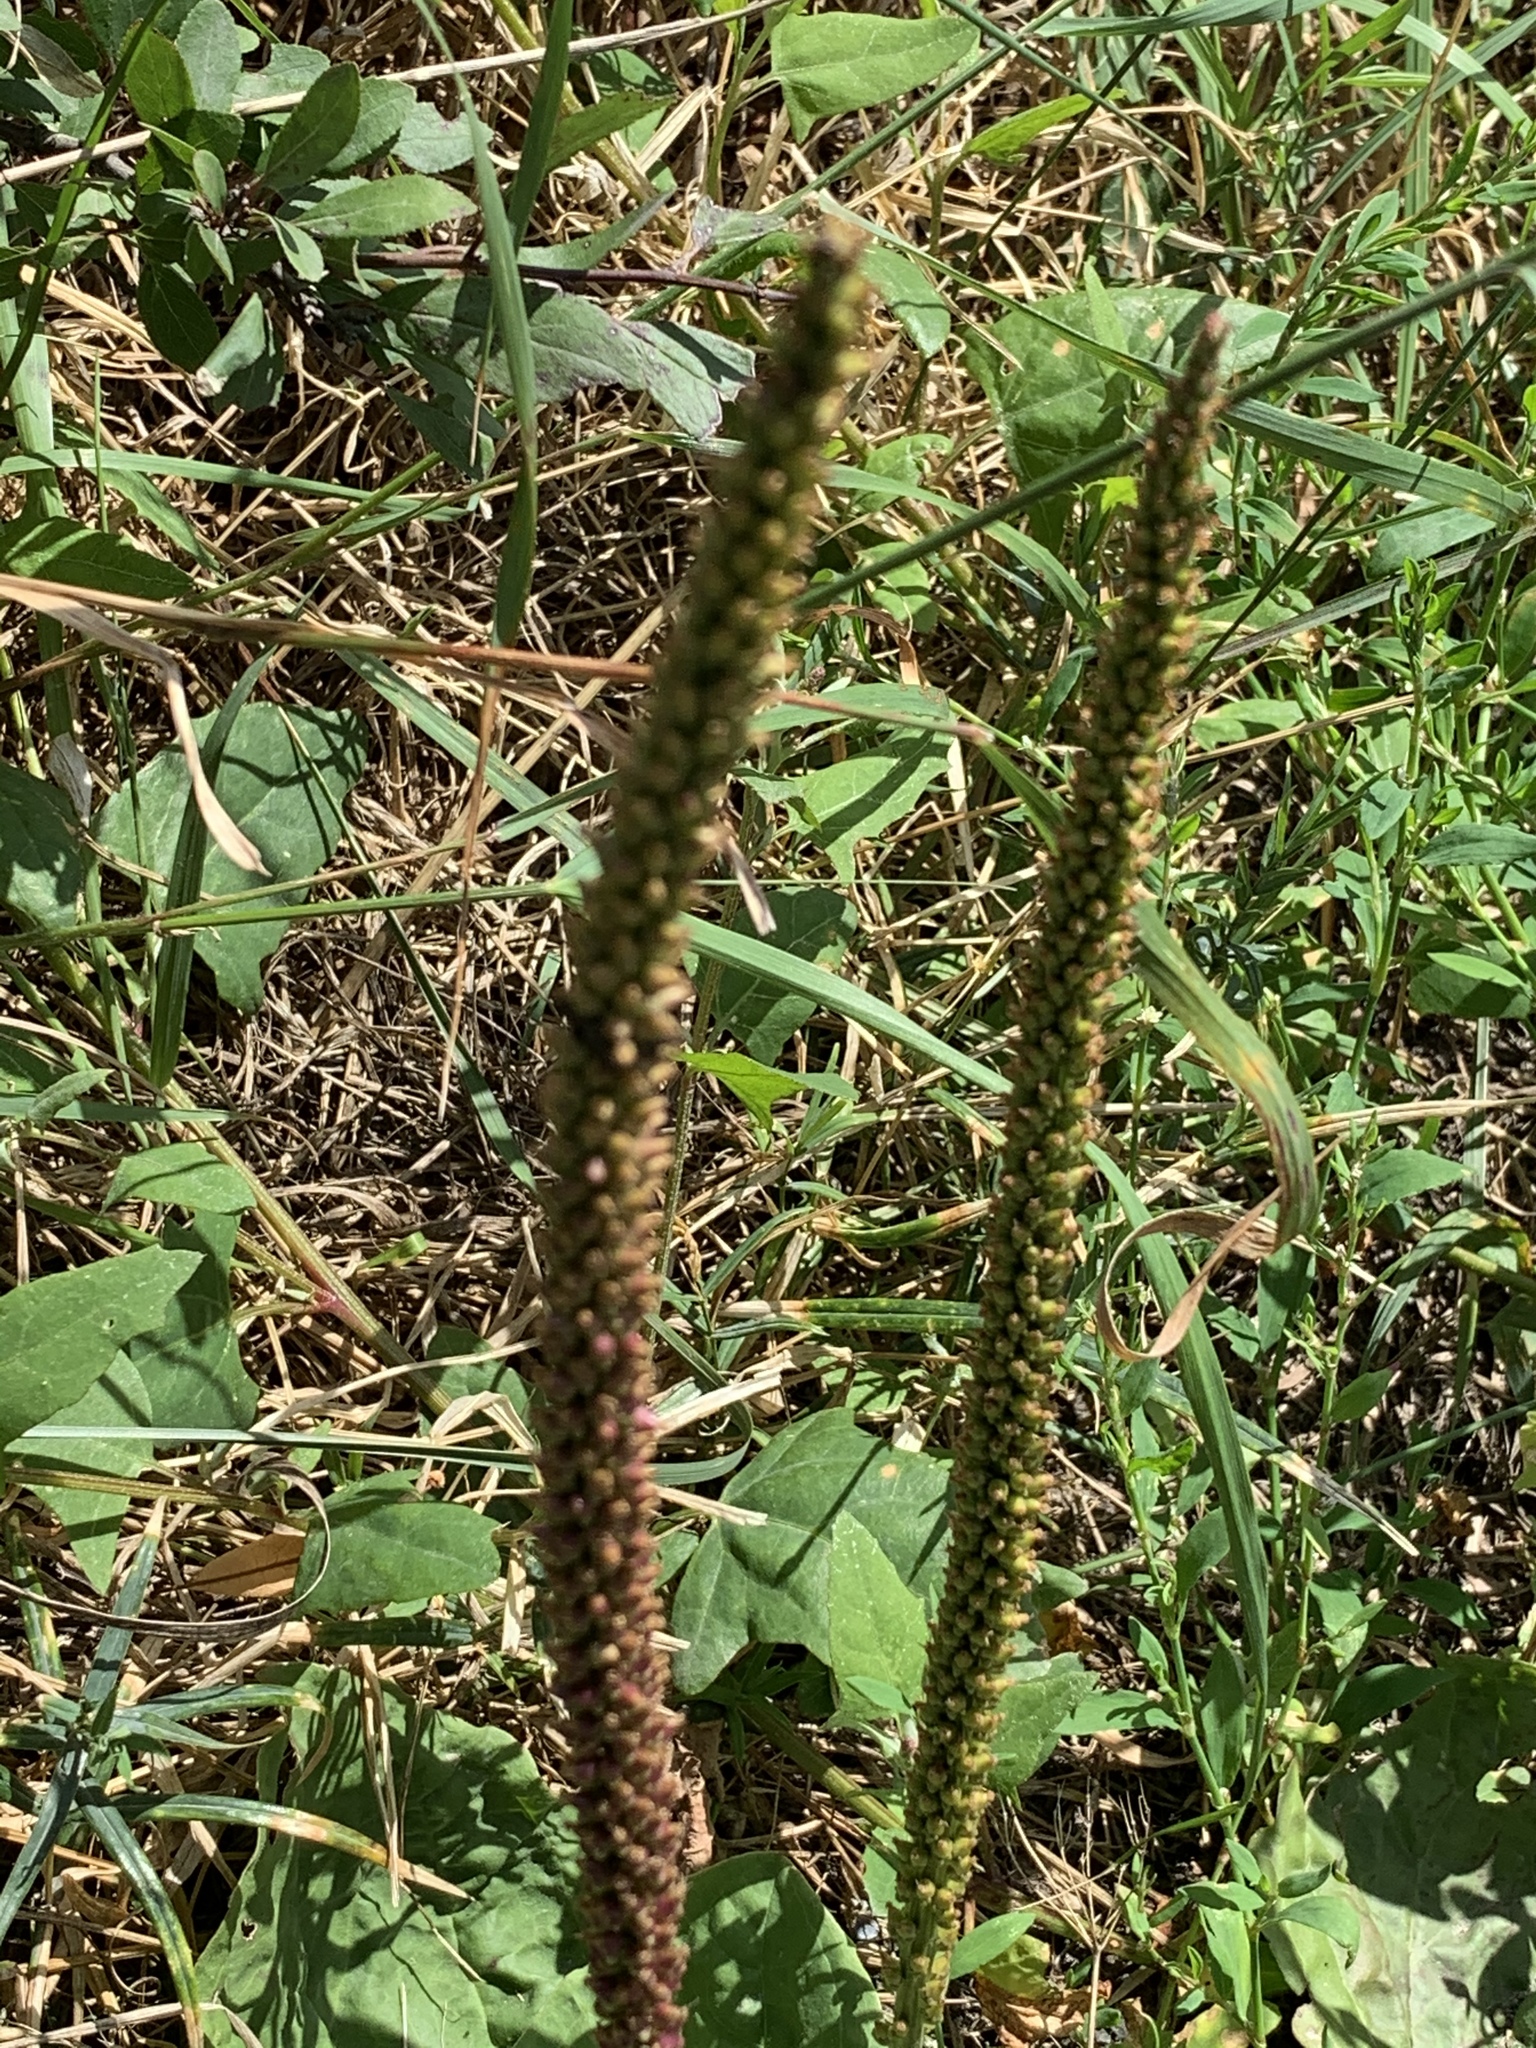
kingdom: Plantae
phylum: Tracheophyta
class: Magnoliopsida
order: Lamiales
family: Plantaginaceae
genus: Plantago
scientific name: Plantago major
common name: Common plantain
